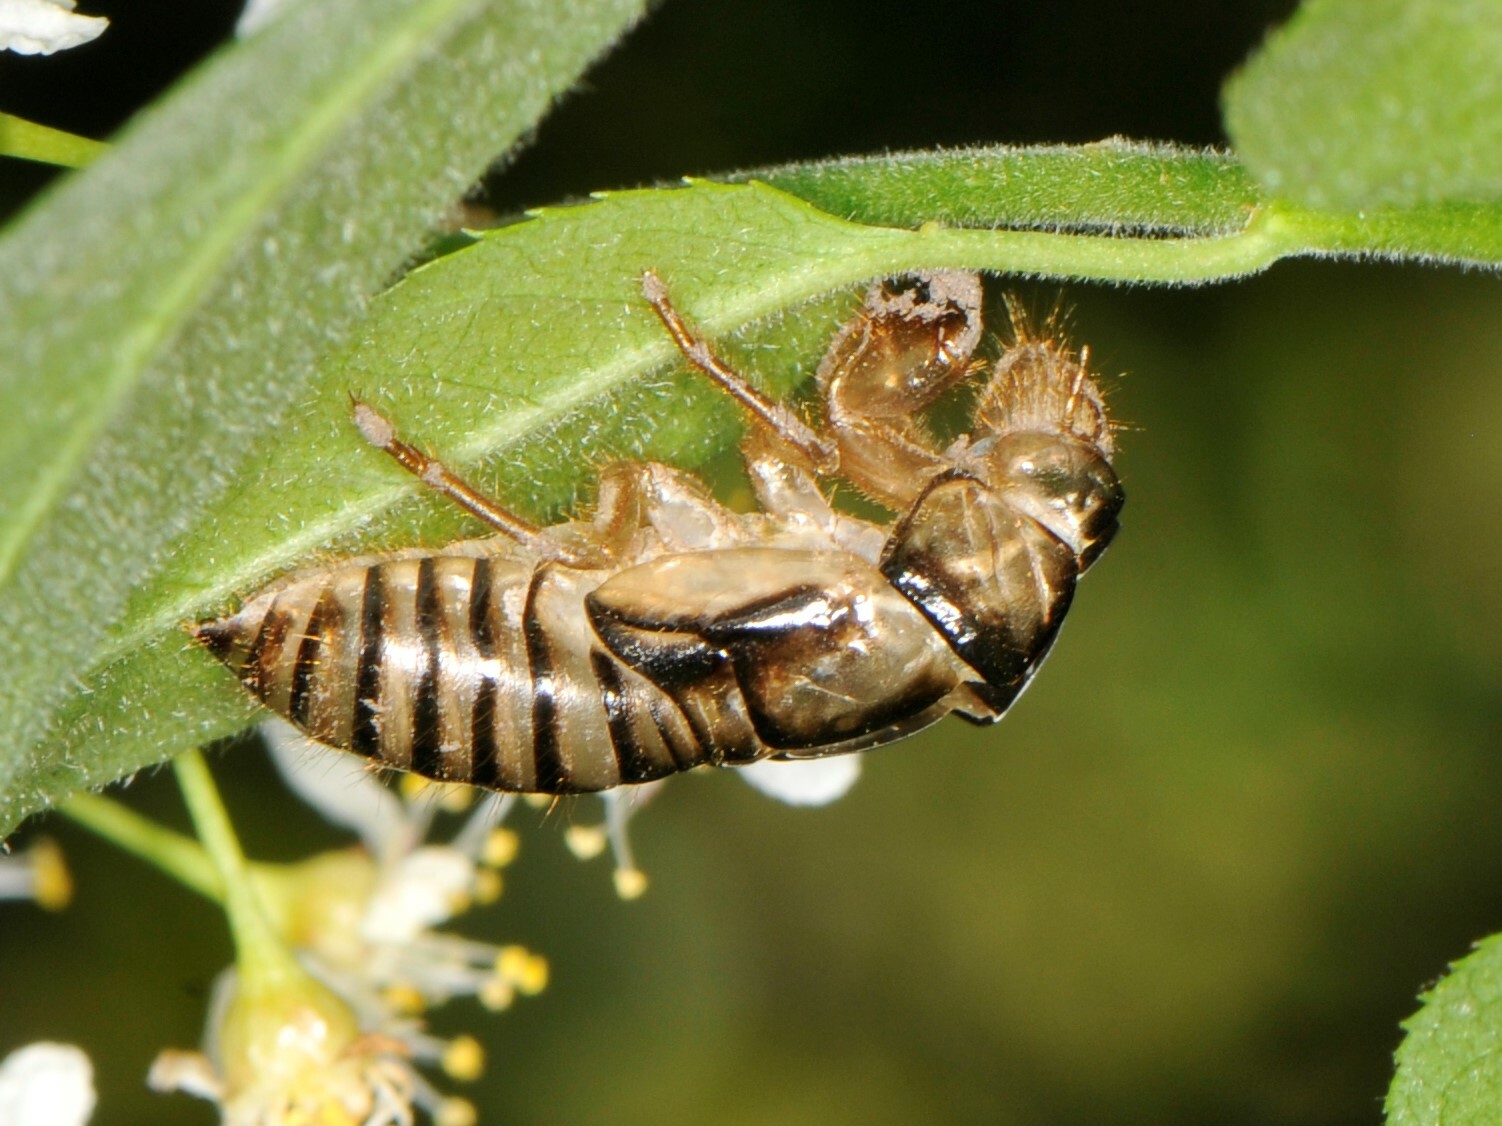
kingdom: Animalia
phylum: Arthropoda
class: Insecta
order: Hemiptera
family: Cicadidae
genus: Platypedia
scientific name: Platypedia
